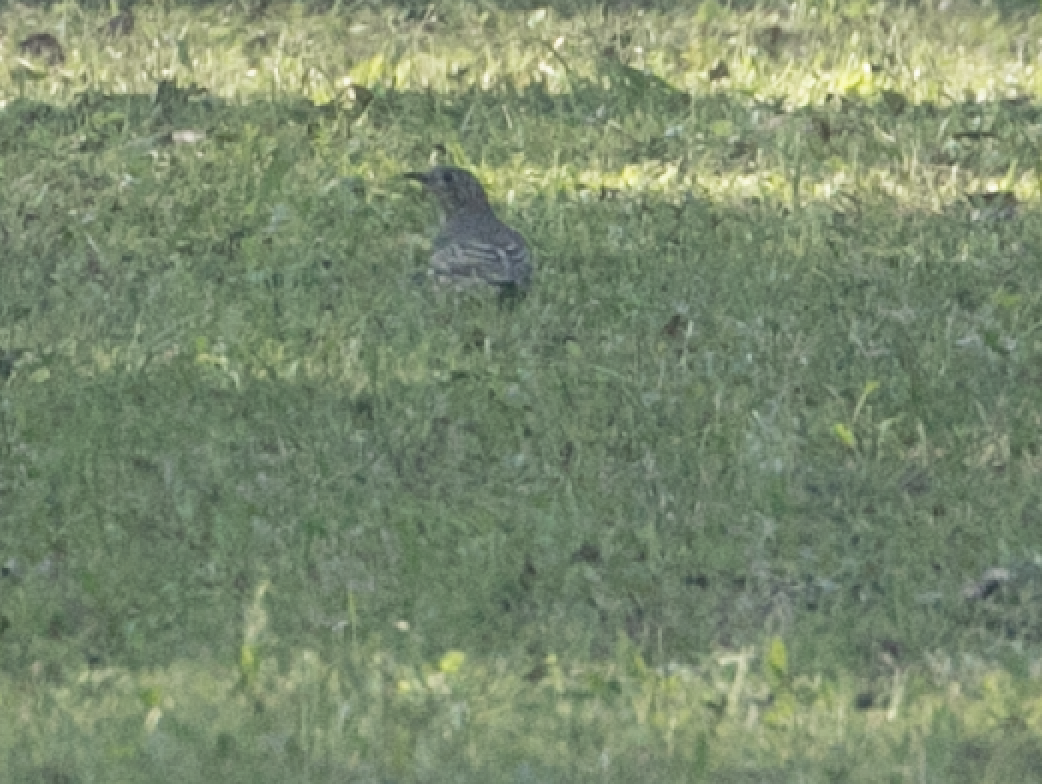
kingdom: Animalia
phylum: Chordata
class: Aves
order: Passeriformes
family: Turdidae
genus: Turdus
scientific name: Turdus viscivorus
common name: Mistle thrush
